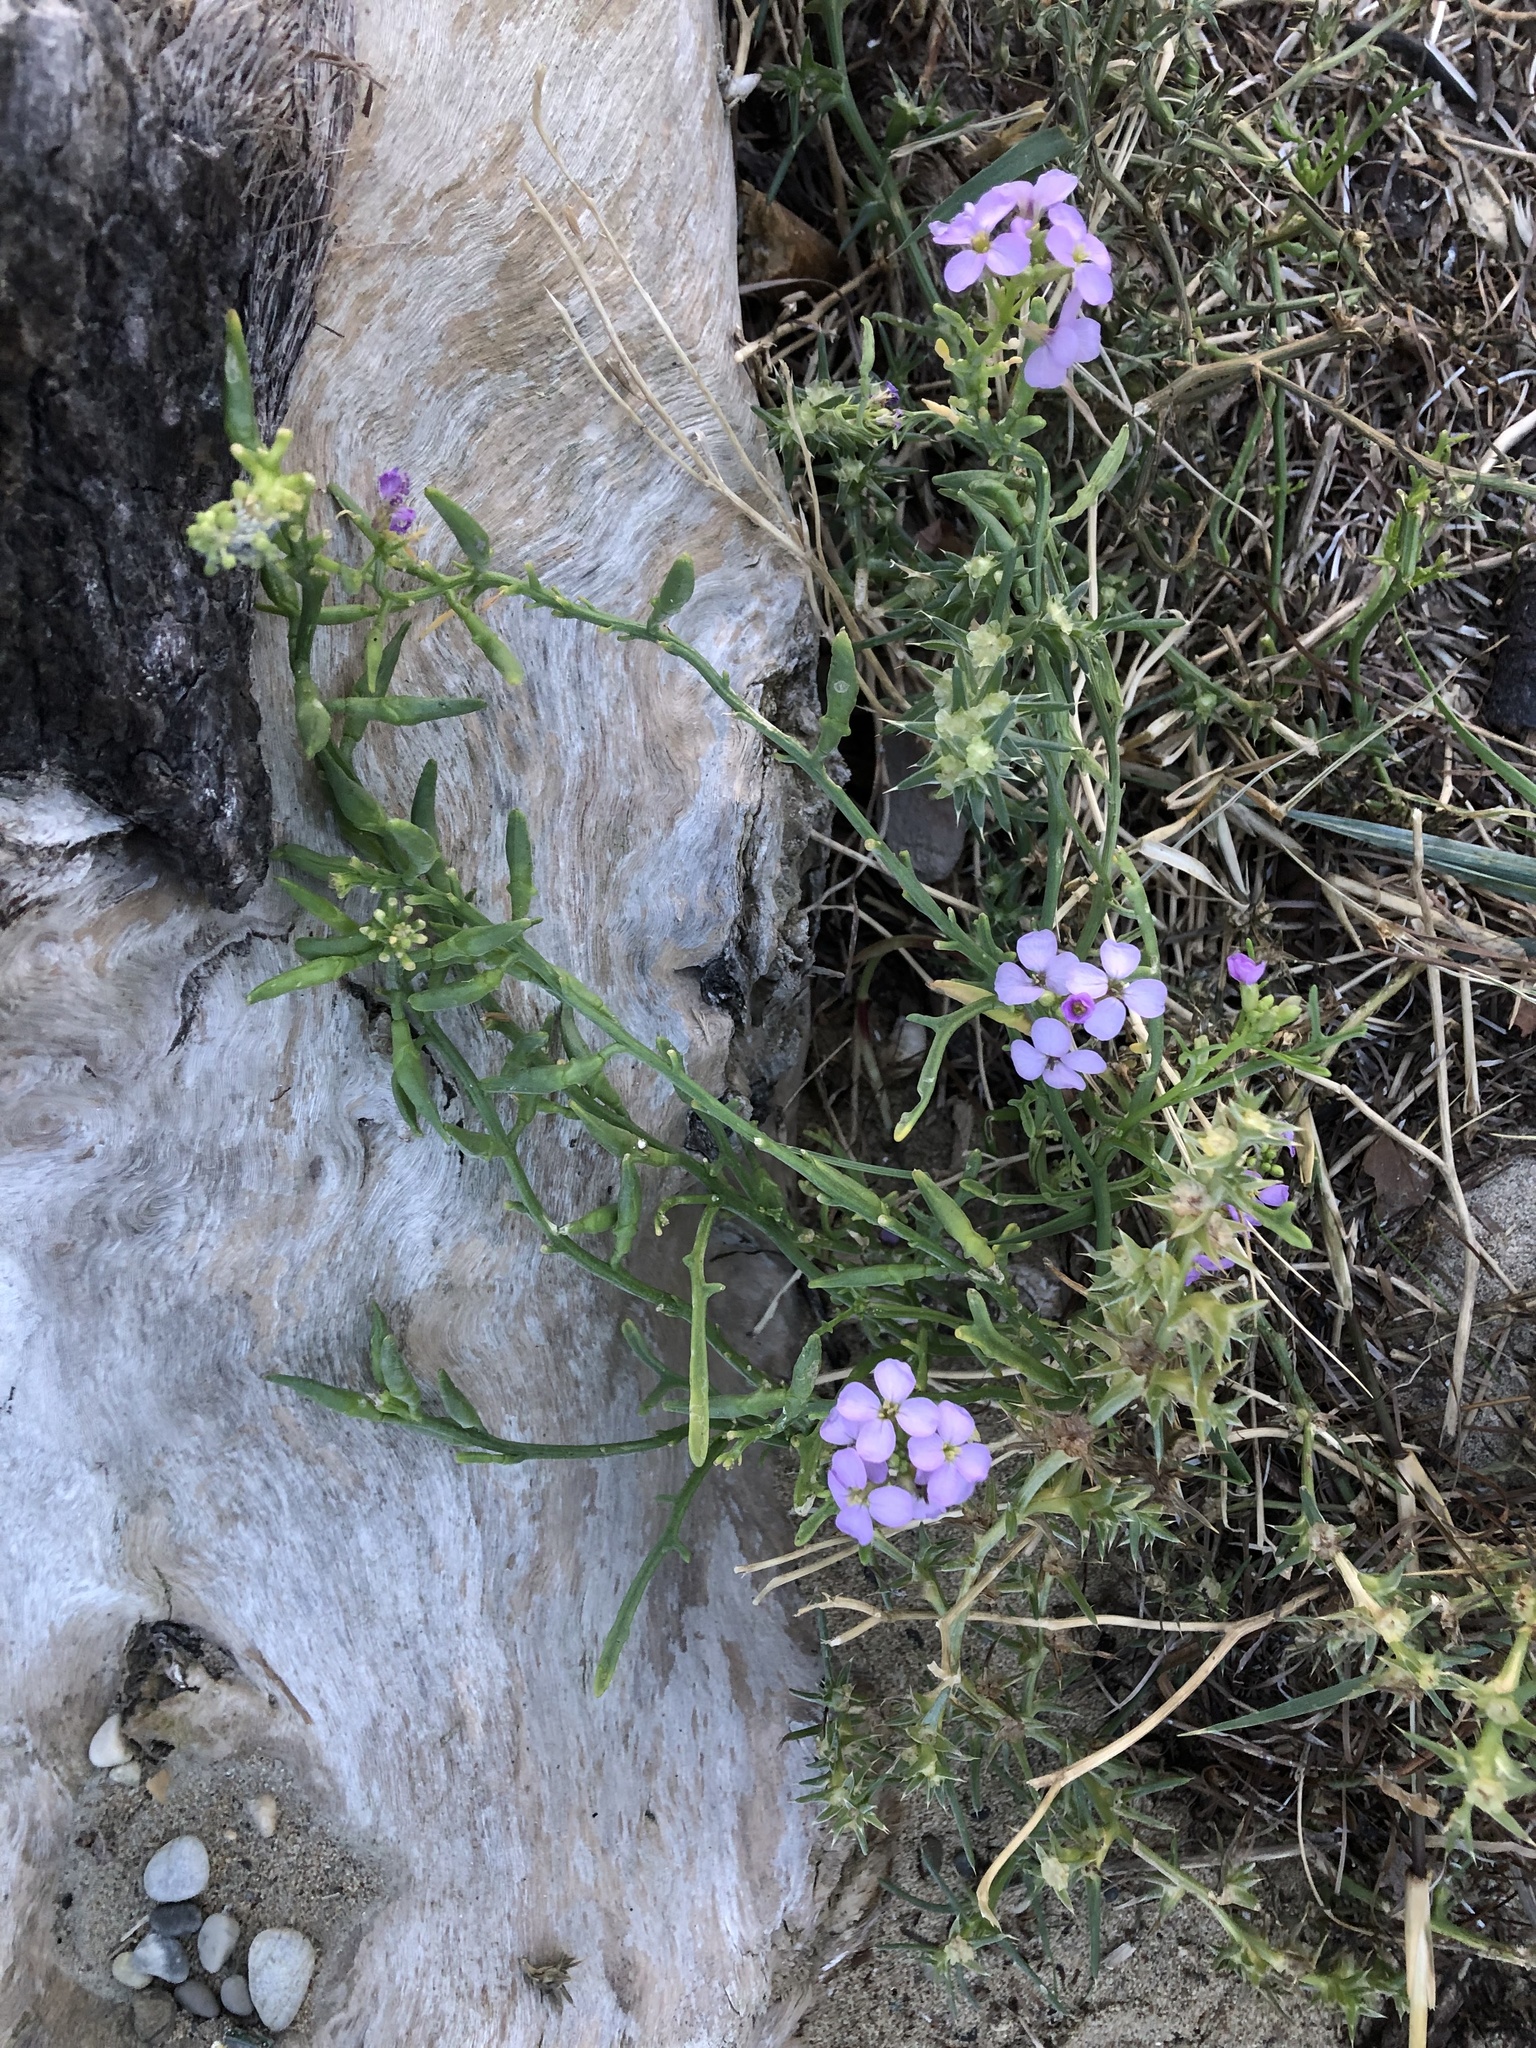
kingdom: Plantae
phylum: Tracheophyta
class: Magnoliopsida
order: Brassicales
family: Brassicaceae
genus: Cakile
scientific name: Cakile maritima
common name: Sea rocket
